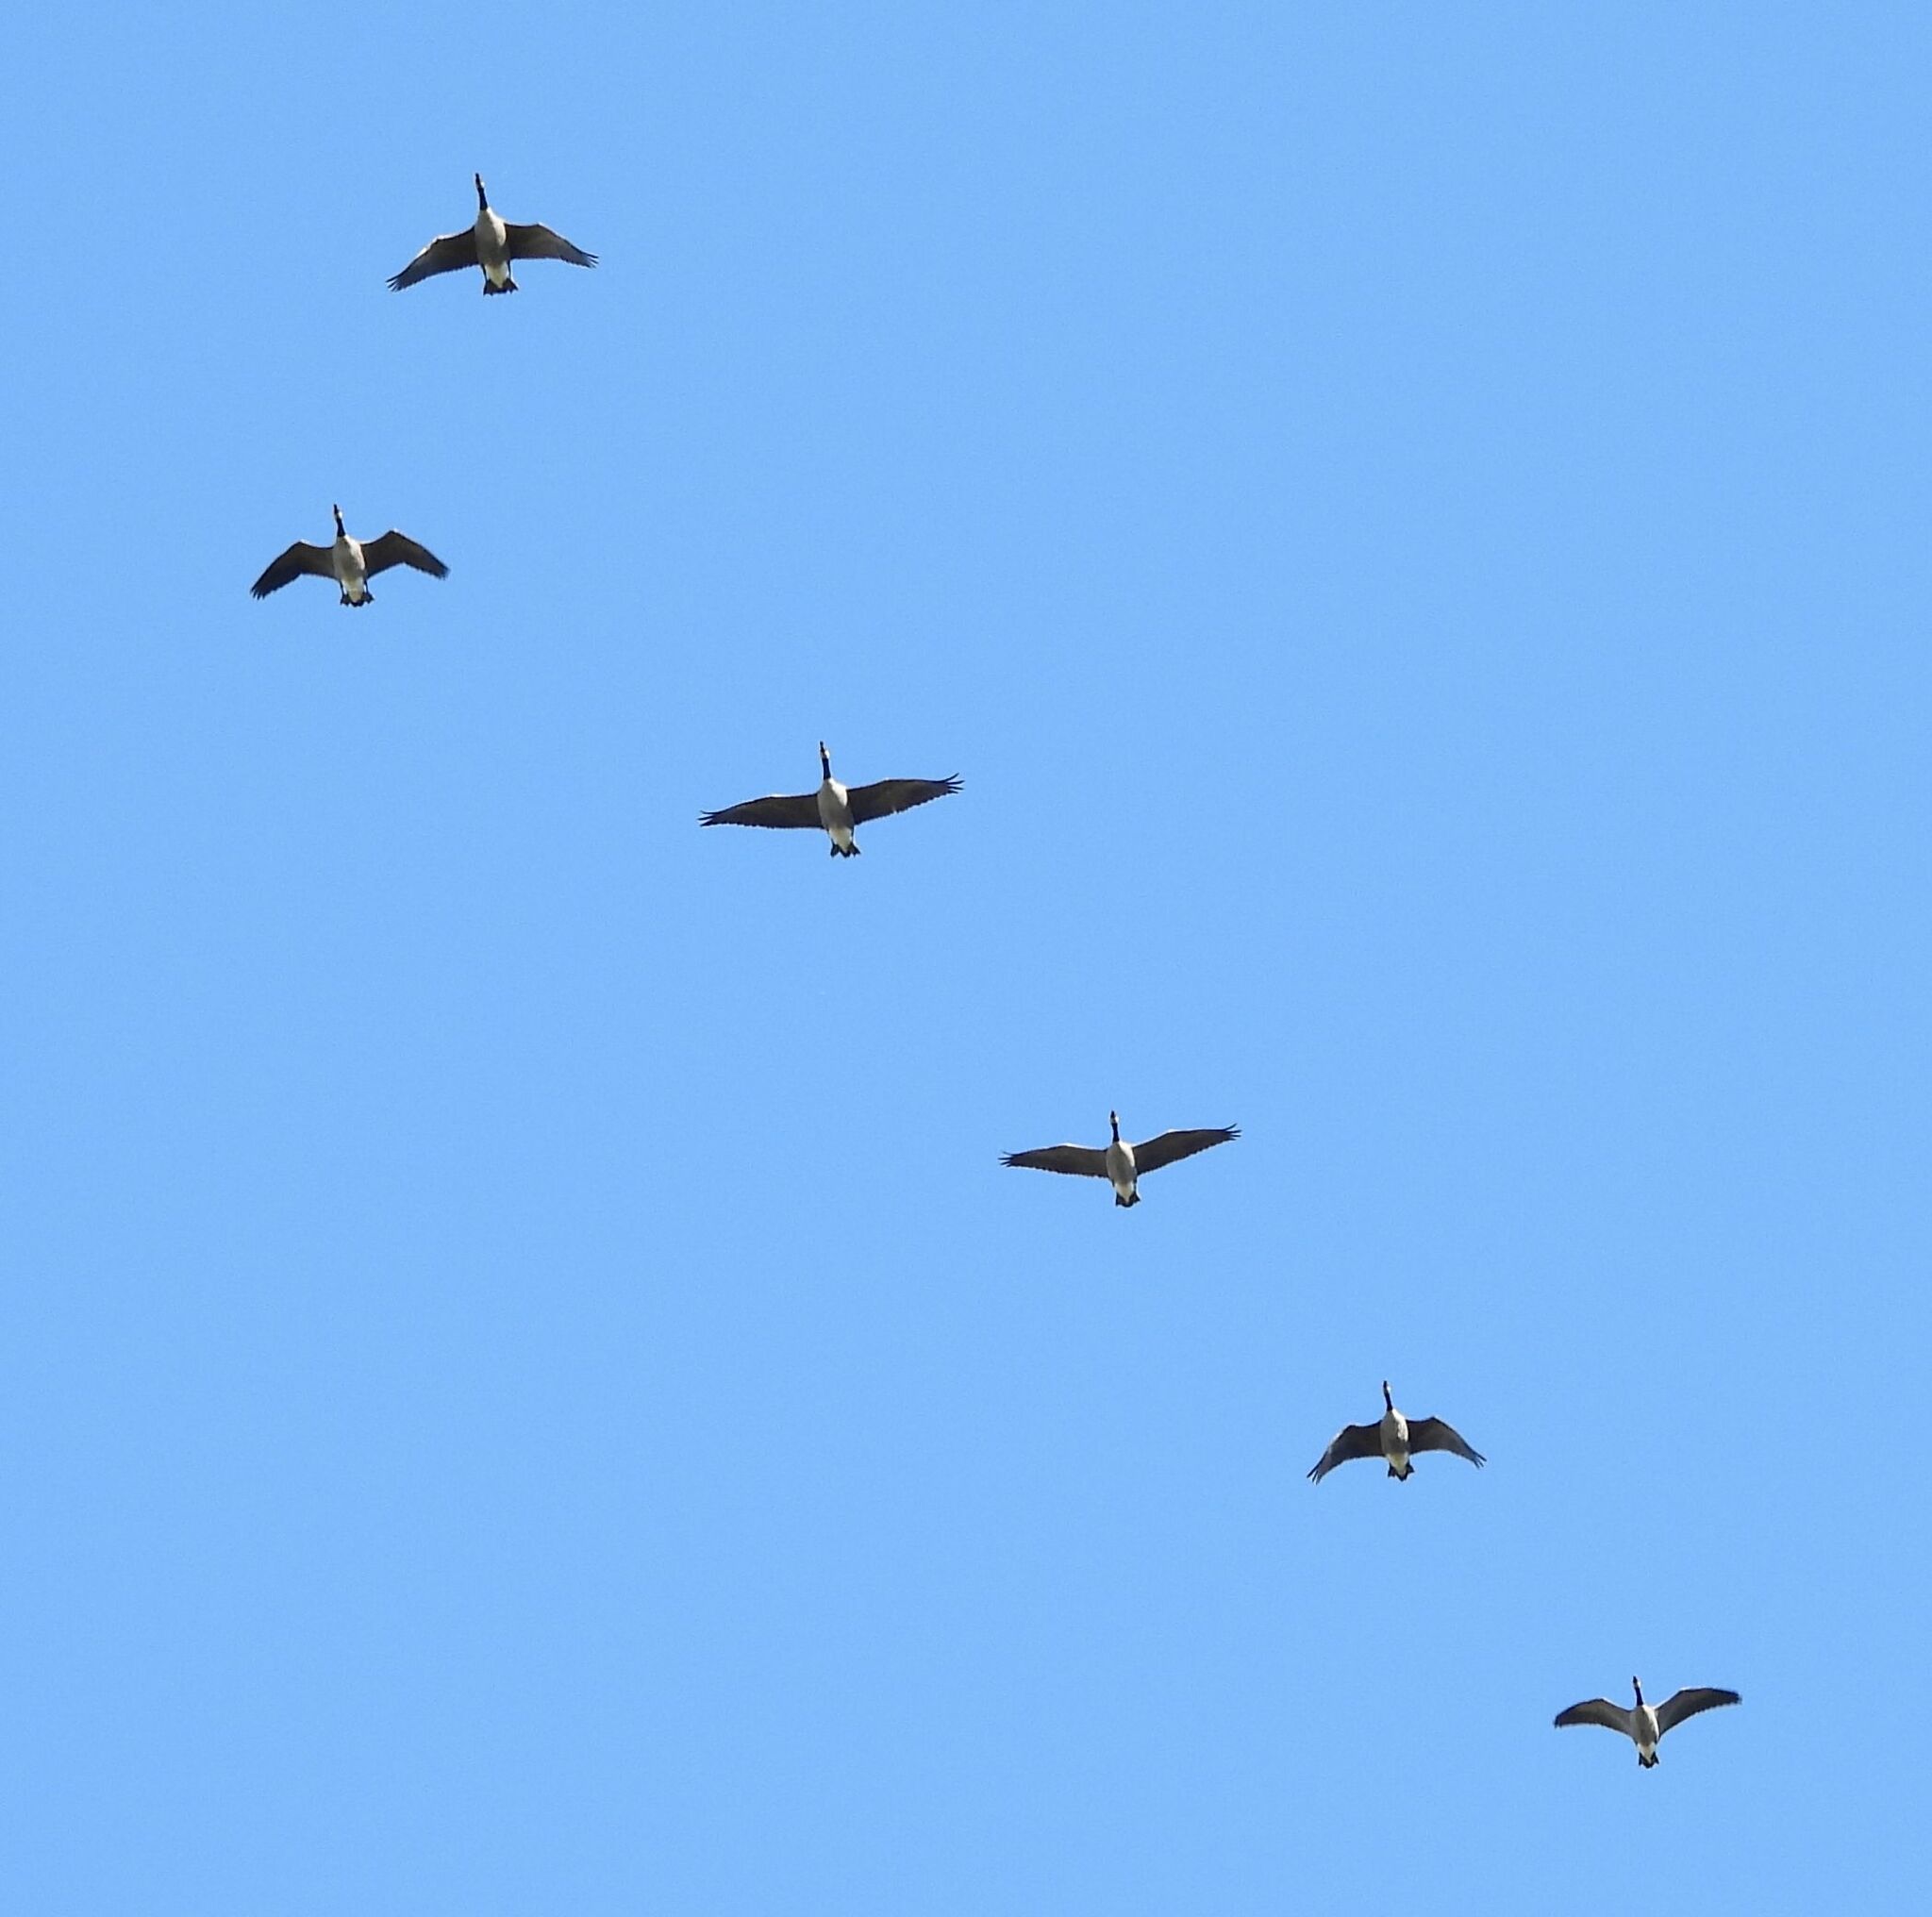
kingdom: Animalia
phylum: Chordata
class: Aves
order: Anseriformes
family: Anatidae
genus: Branta
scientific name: Branta canadensis
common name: Canada goose
